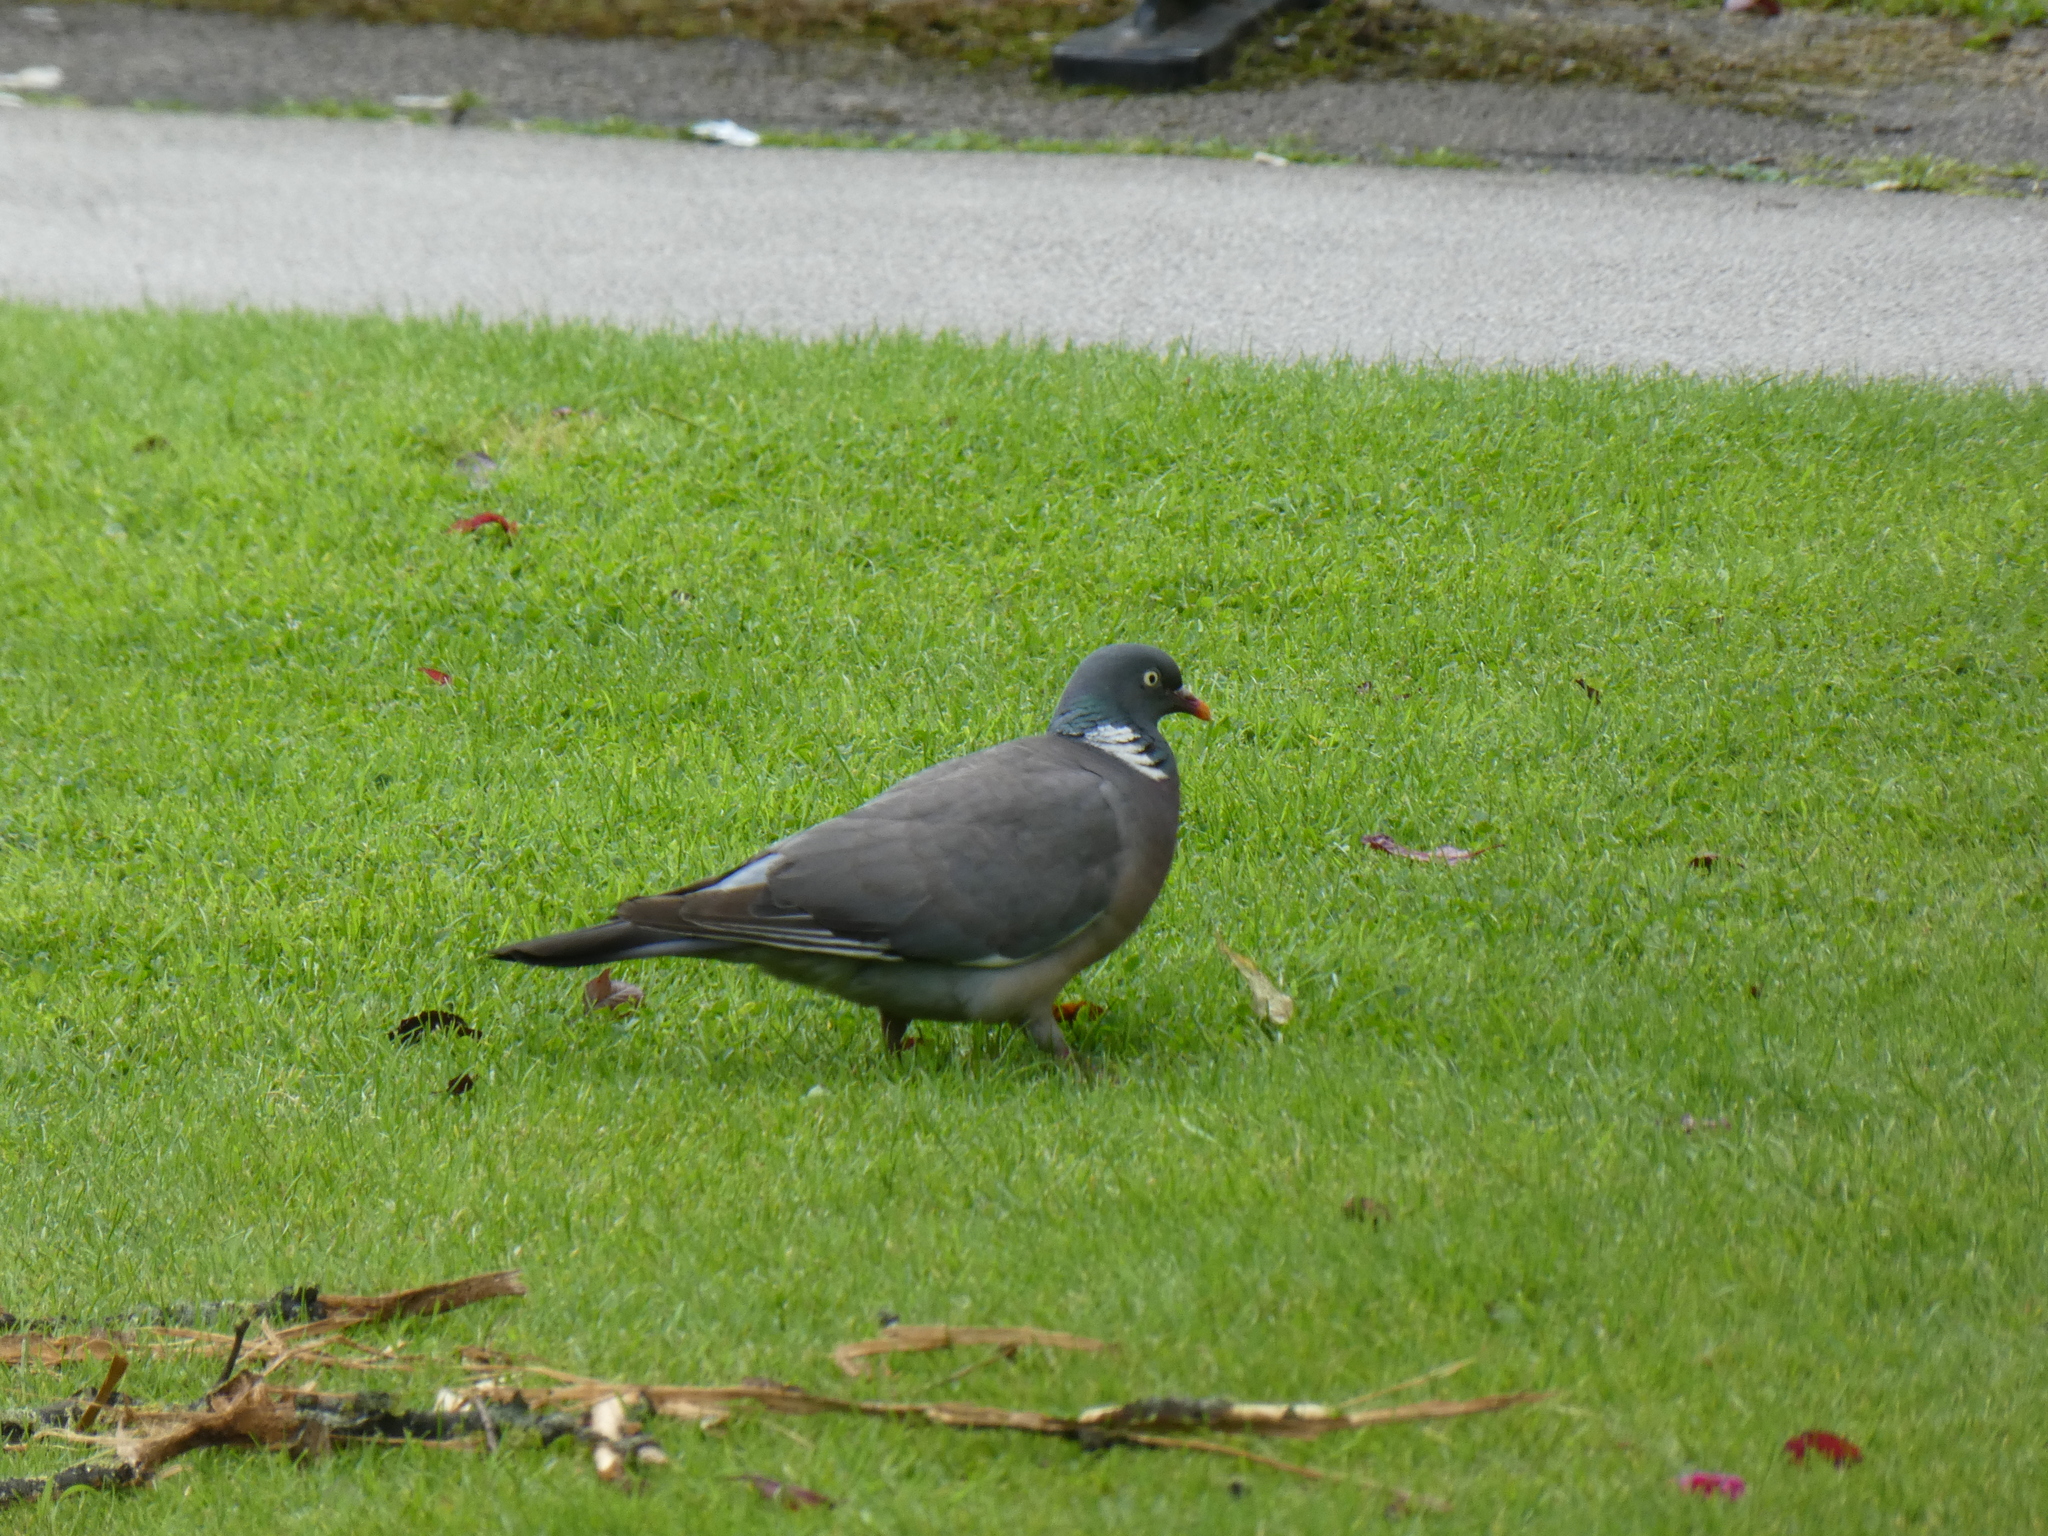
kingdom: Animalia
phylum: Chordata
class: Aves
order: Columbiformes
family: Columbidae
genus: Columba
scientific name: Columba palumbus
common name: Common wood pigeon
